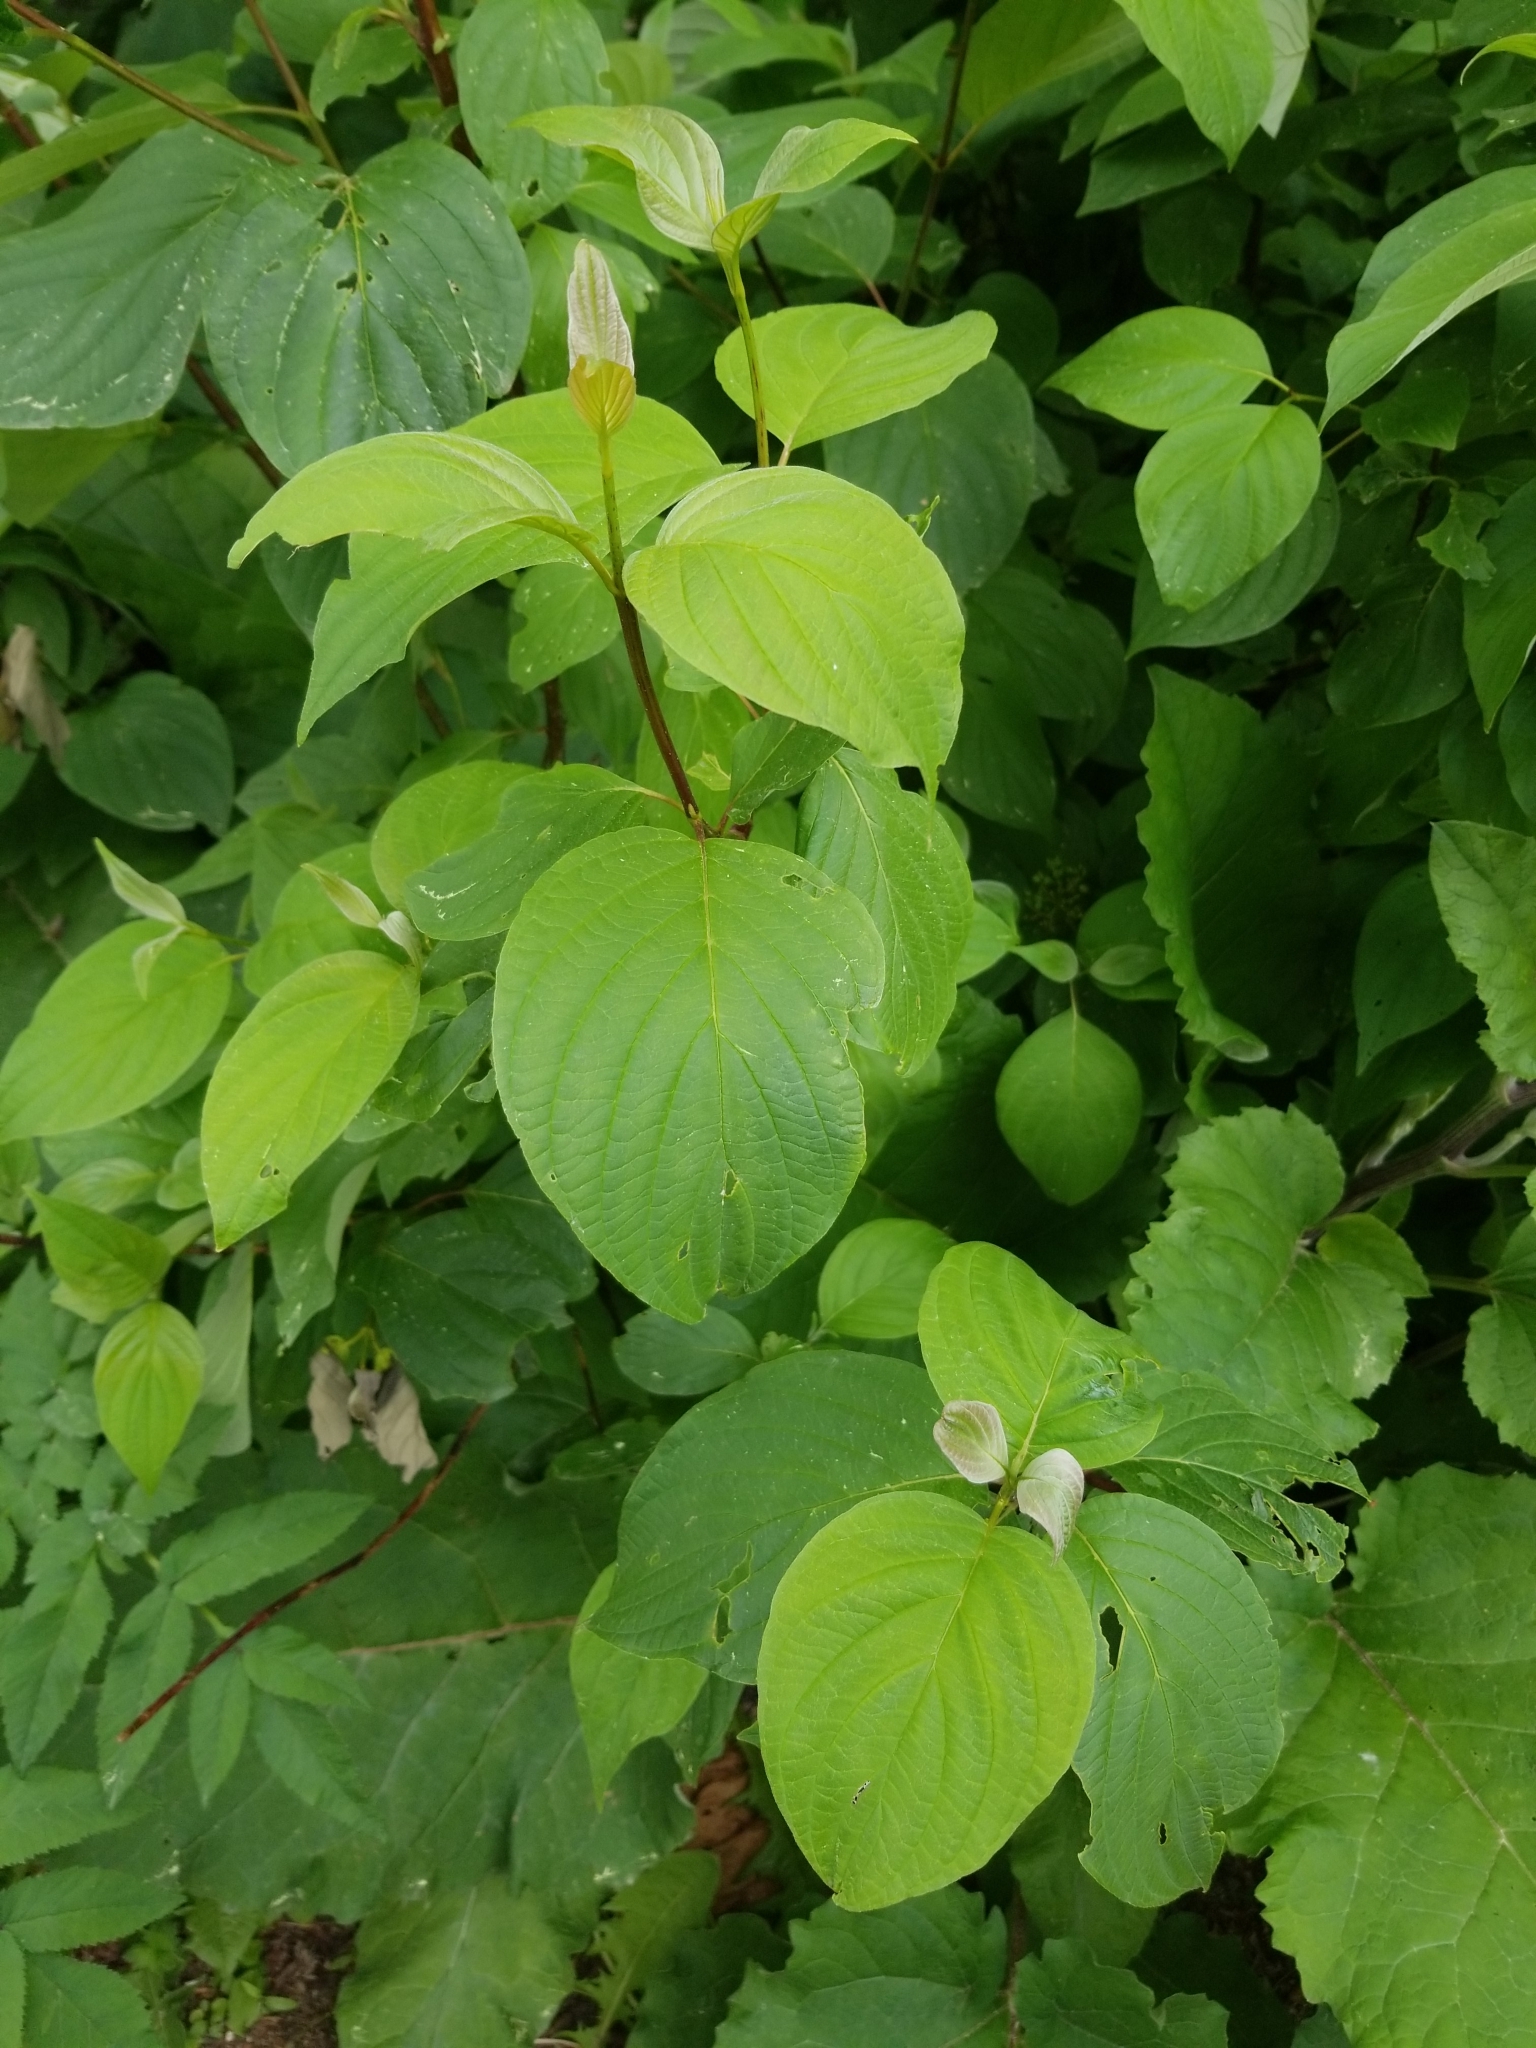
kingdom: Plantae
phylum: Tracheophyta
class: Magnoliopsida
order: Cornales
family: Cornaceae
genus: Cornus
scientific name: Cornus rugosa
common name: Round-leaf dogwood
